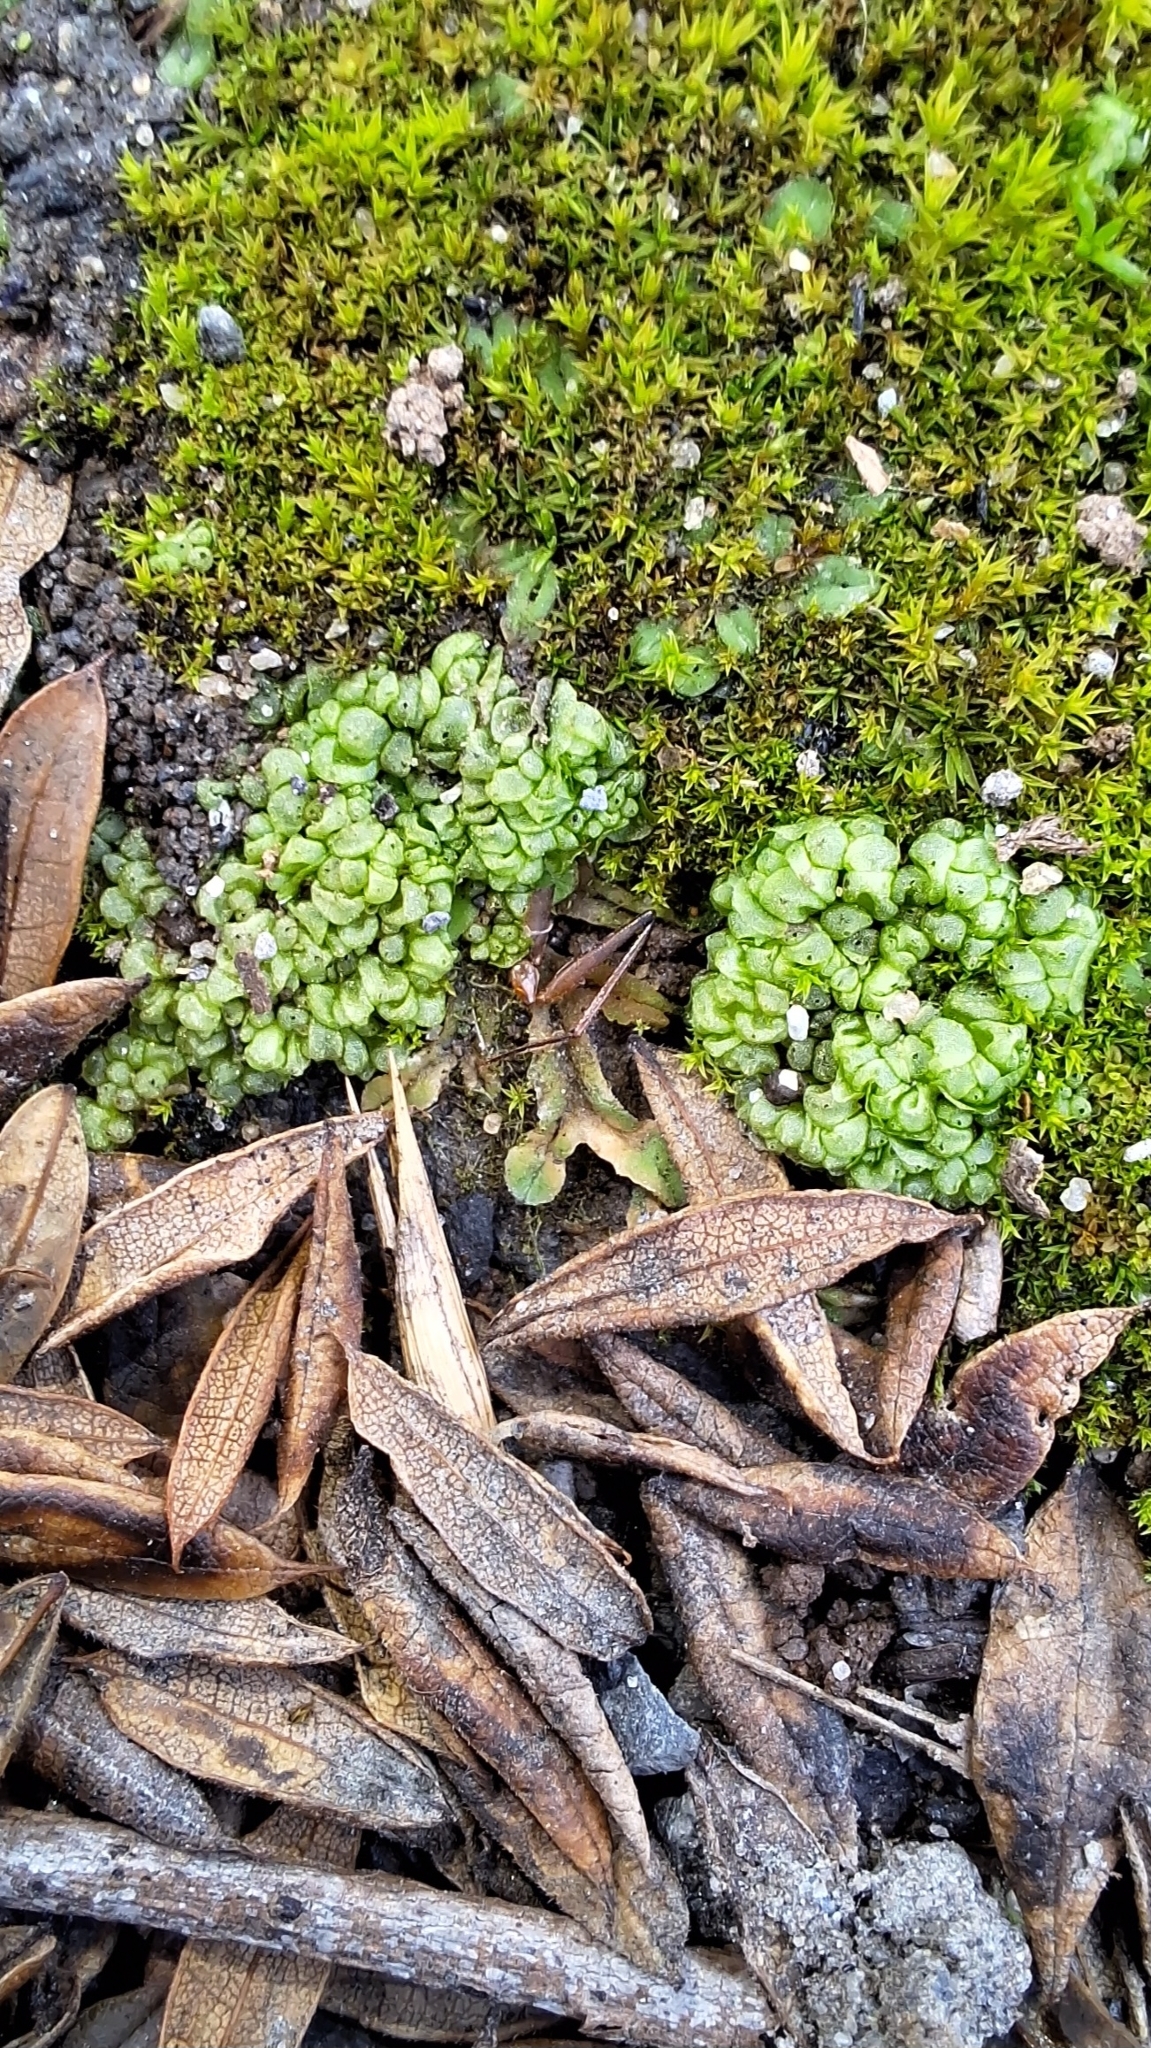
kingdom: Plantae
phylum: Marchantiophyta
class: Marchantiopsida
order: Sphaerocarpales
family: Sphaerocarpaceae
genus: Sphaerocarpos
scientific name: Sphaerocarpos texanus
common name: Texas balloonwort
